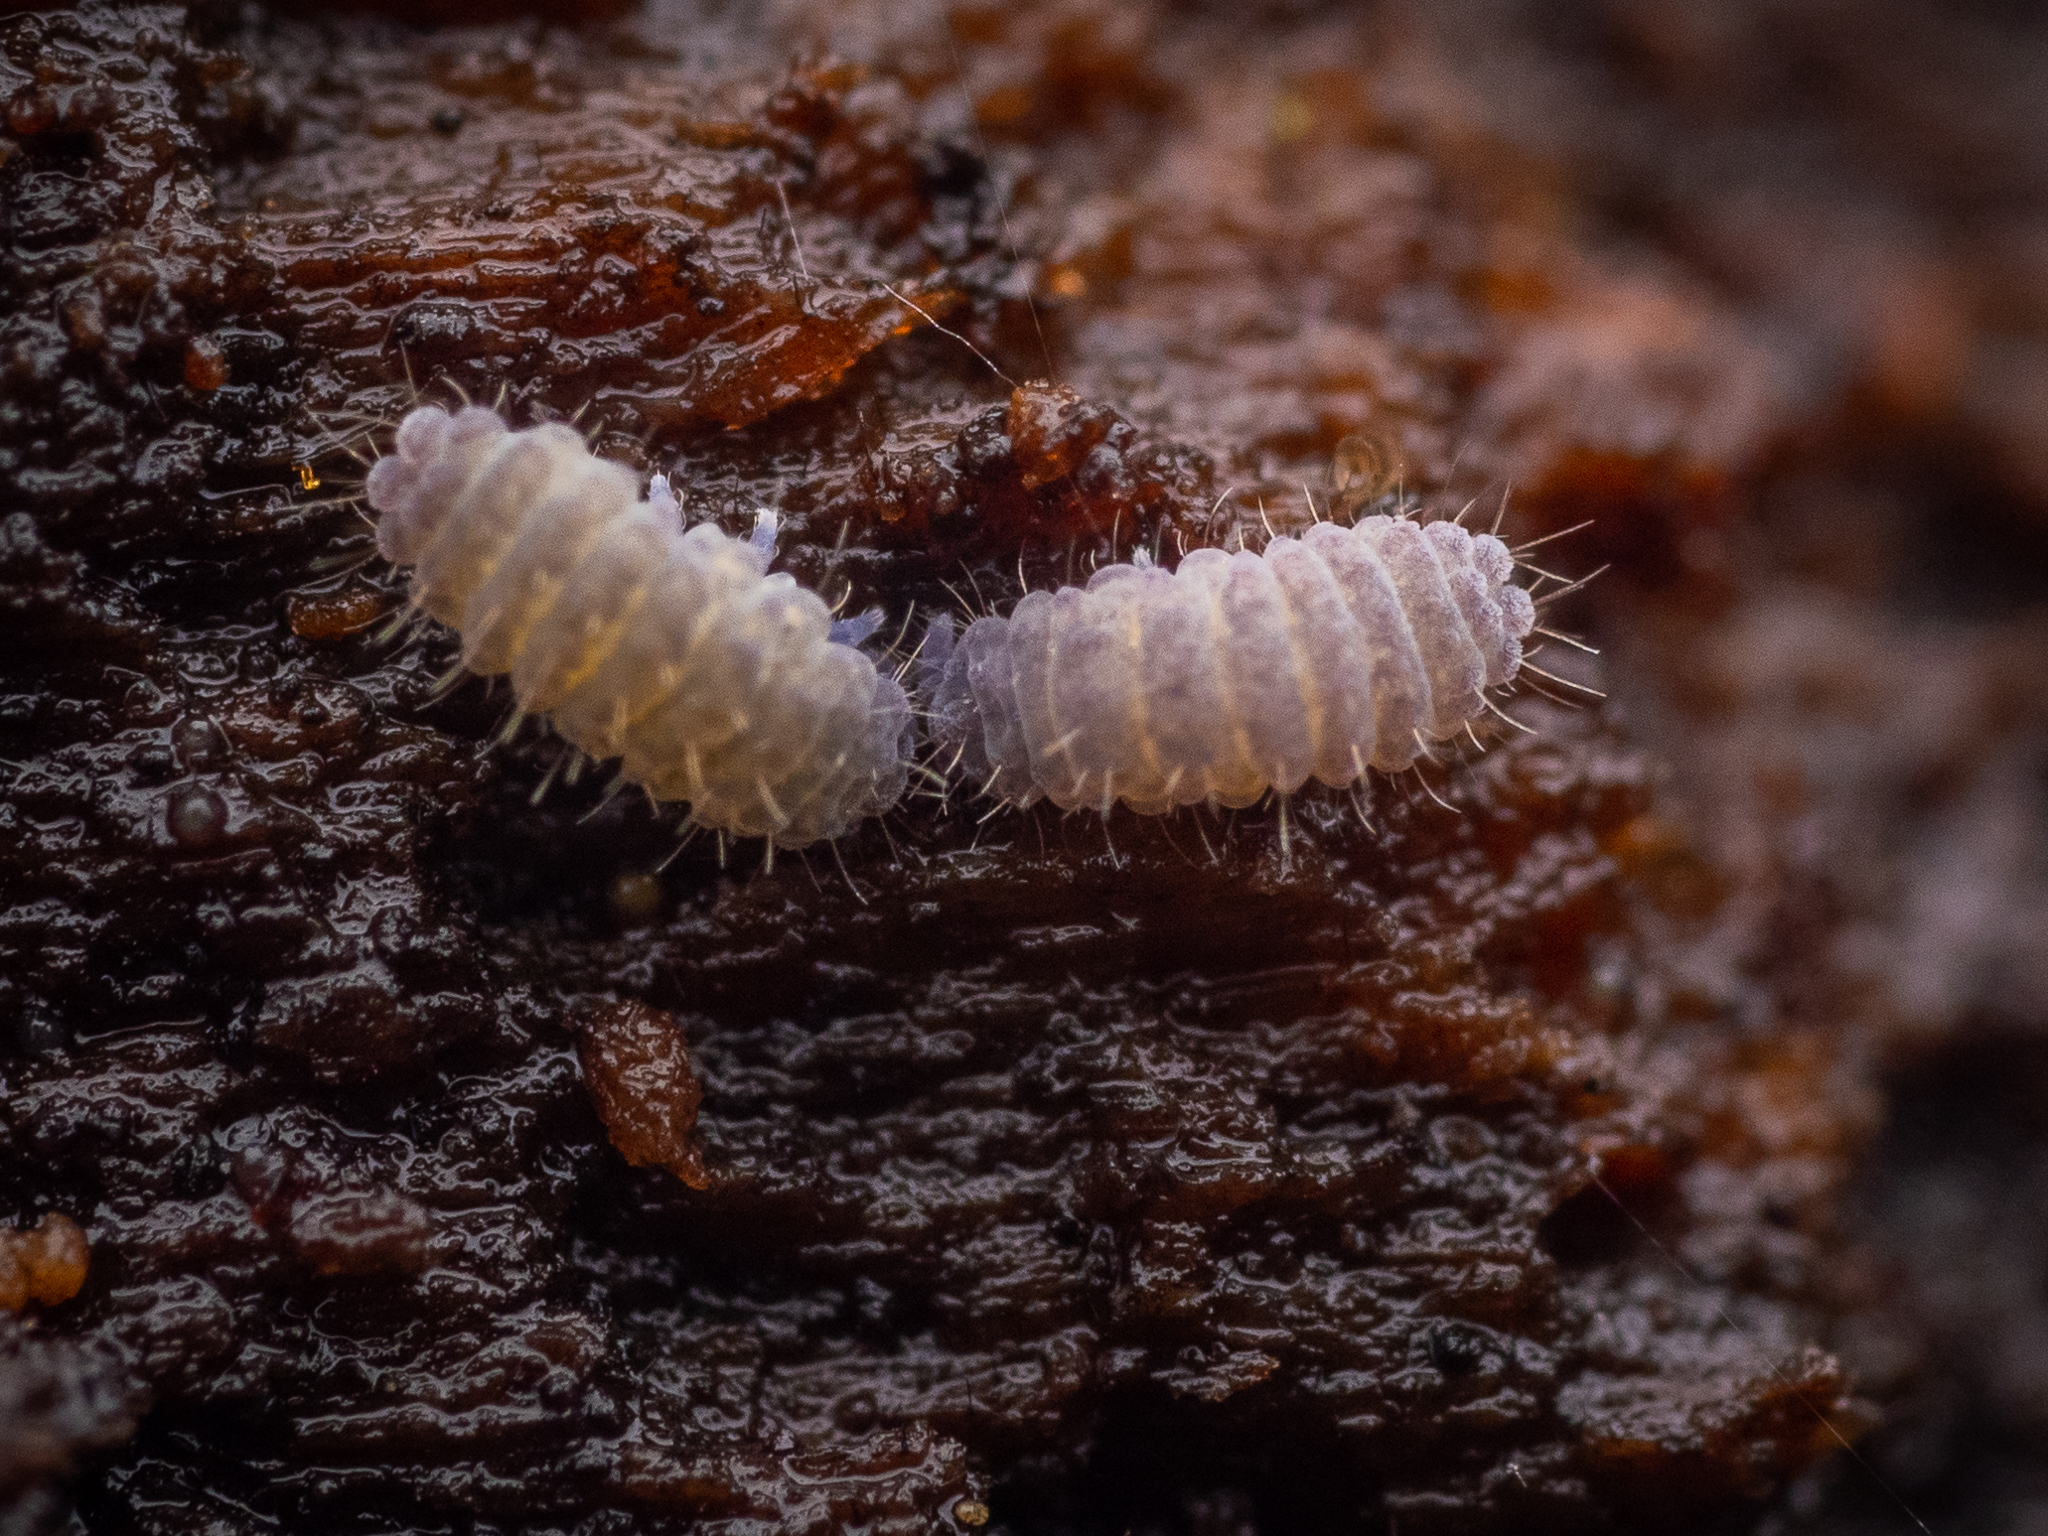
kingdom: Animalia
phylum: Arthropoda
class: Collembola
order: Poduromorpha
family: Neanuridae
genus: Neanura
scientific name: Neanura muscorum
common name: Springtail
